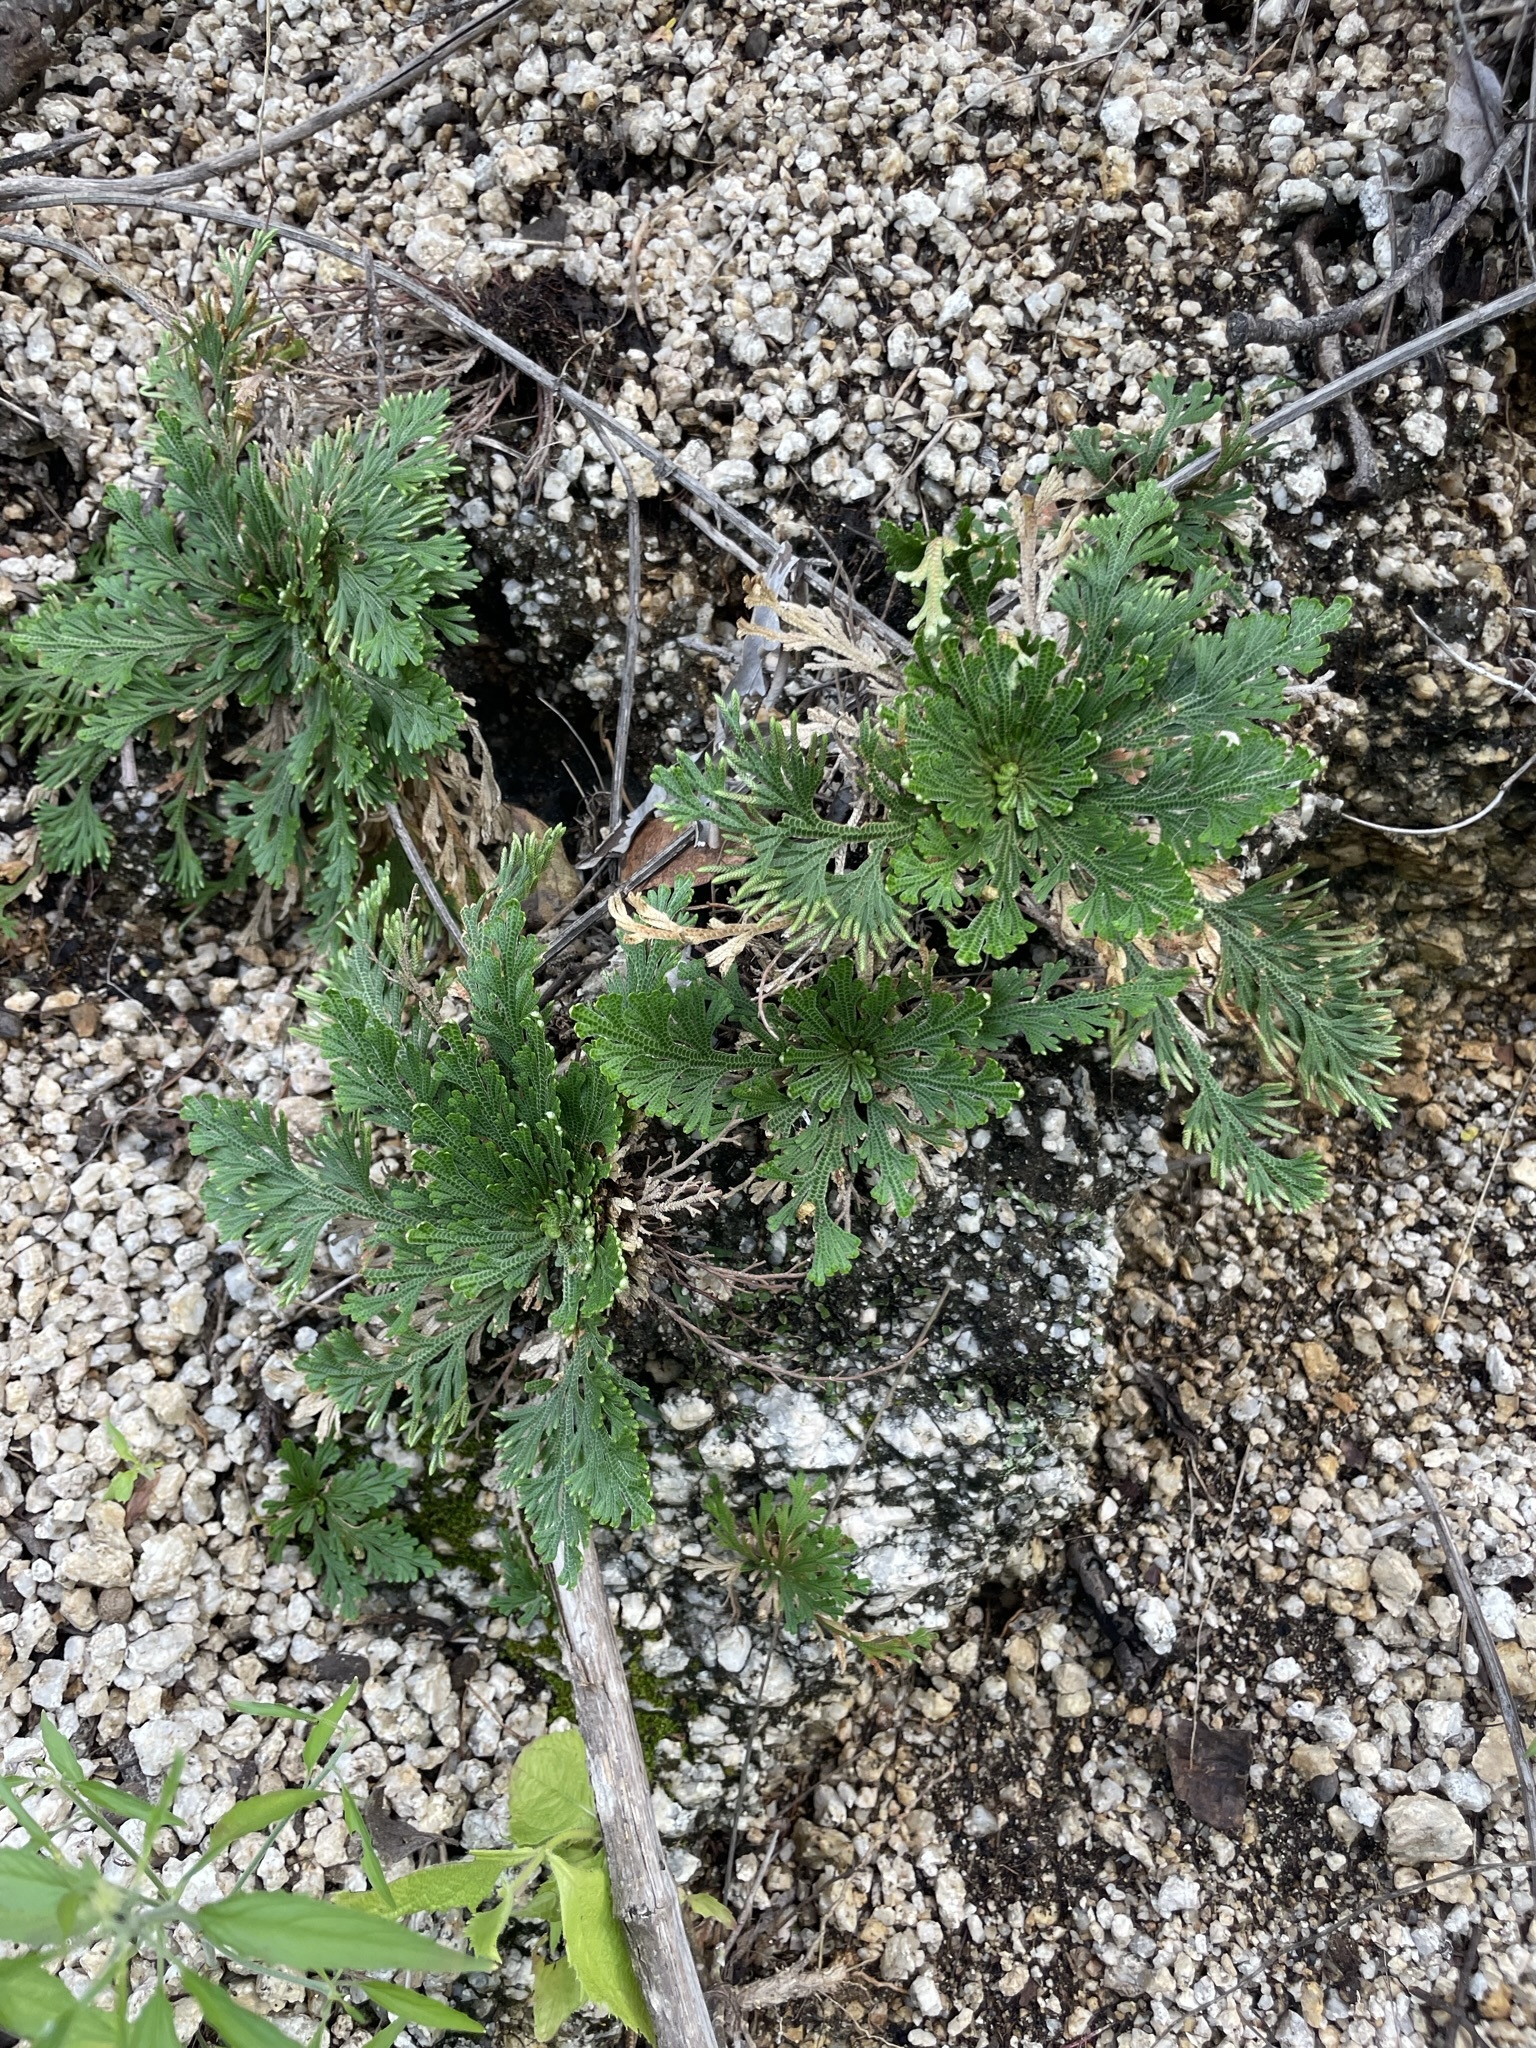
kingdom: Plantae
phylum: Tracheophyta
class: Lycopodiopsida
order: Selaginellales
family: Selaginellaceae
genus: Selaginella
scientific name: Selaginella lepidophylla
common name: Rose-of-jericho
